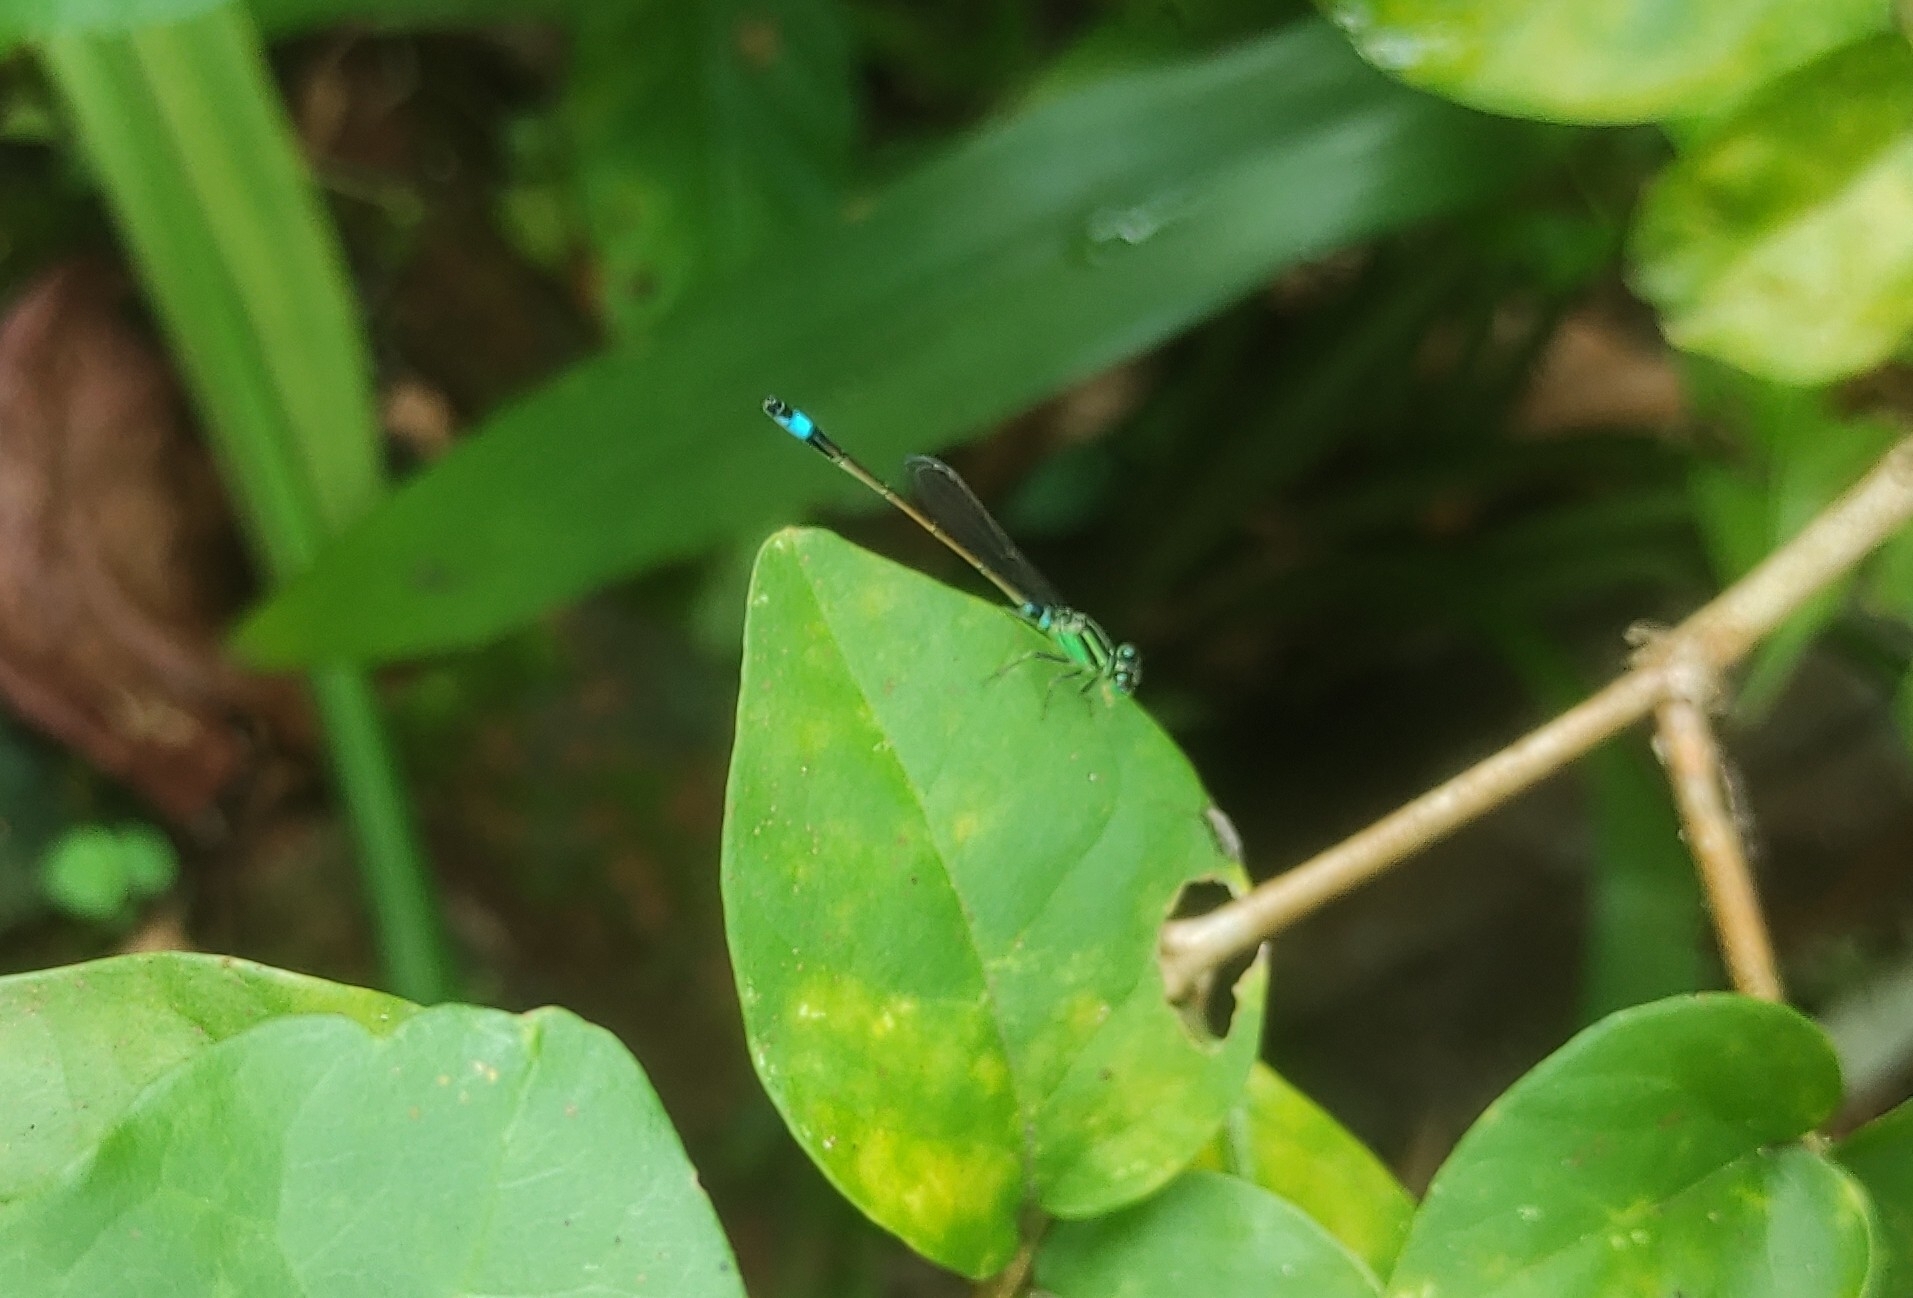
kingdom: Animalia
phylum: Arthropoda
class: Insecta
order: Odonata
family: Coenagrionidae
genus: Ischnura
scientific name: Ischnura senegalensis
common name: Tropical bluetail
